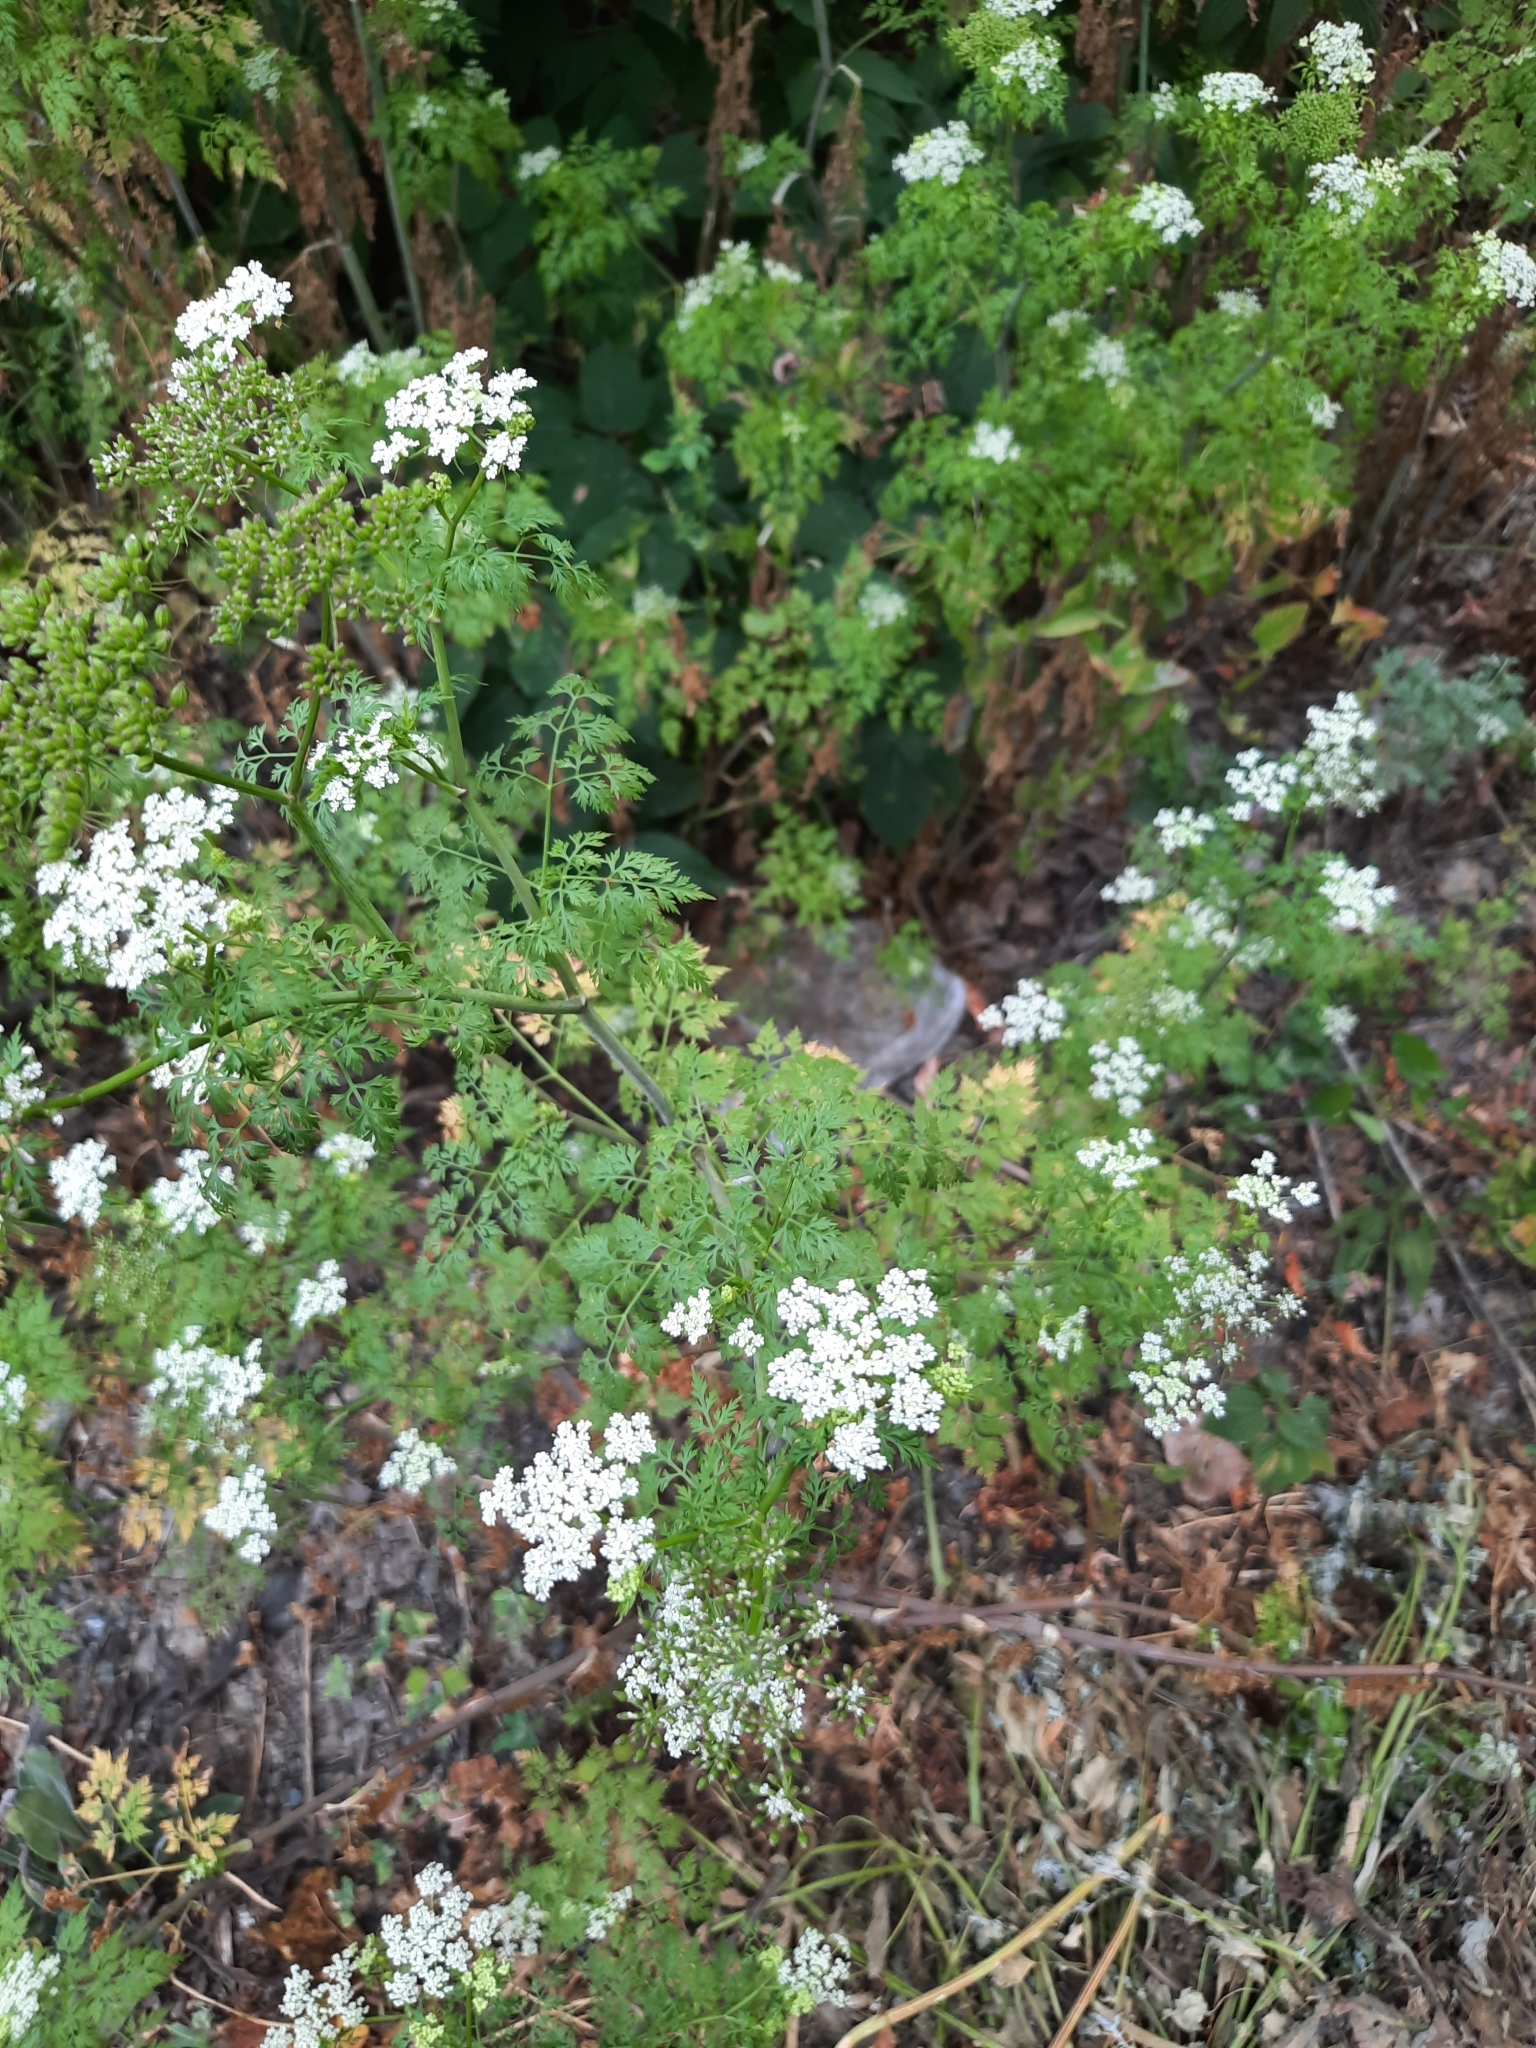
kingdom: Plantae
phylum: Tracheophyta
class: Magnoliopsida
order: Apiales
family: Apiaceae
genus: Conium
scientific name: Conium maculatum
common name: Hemlock
